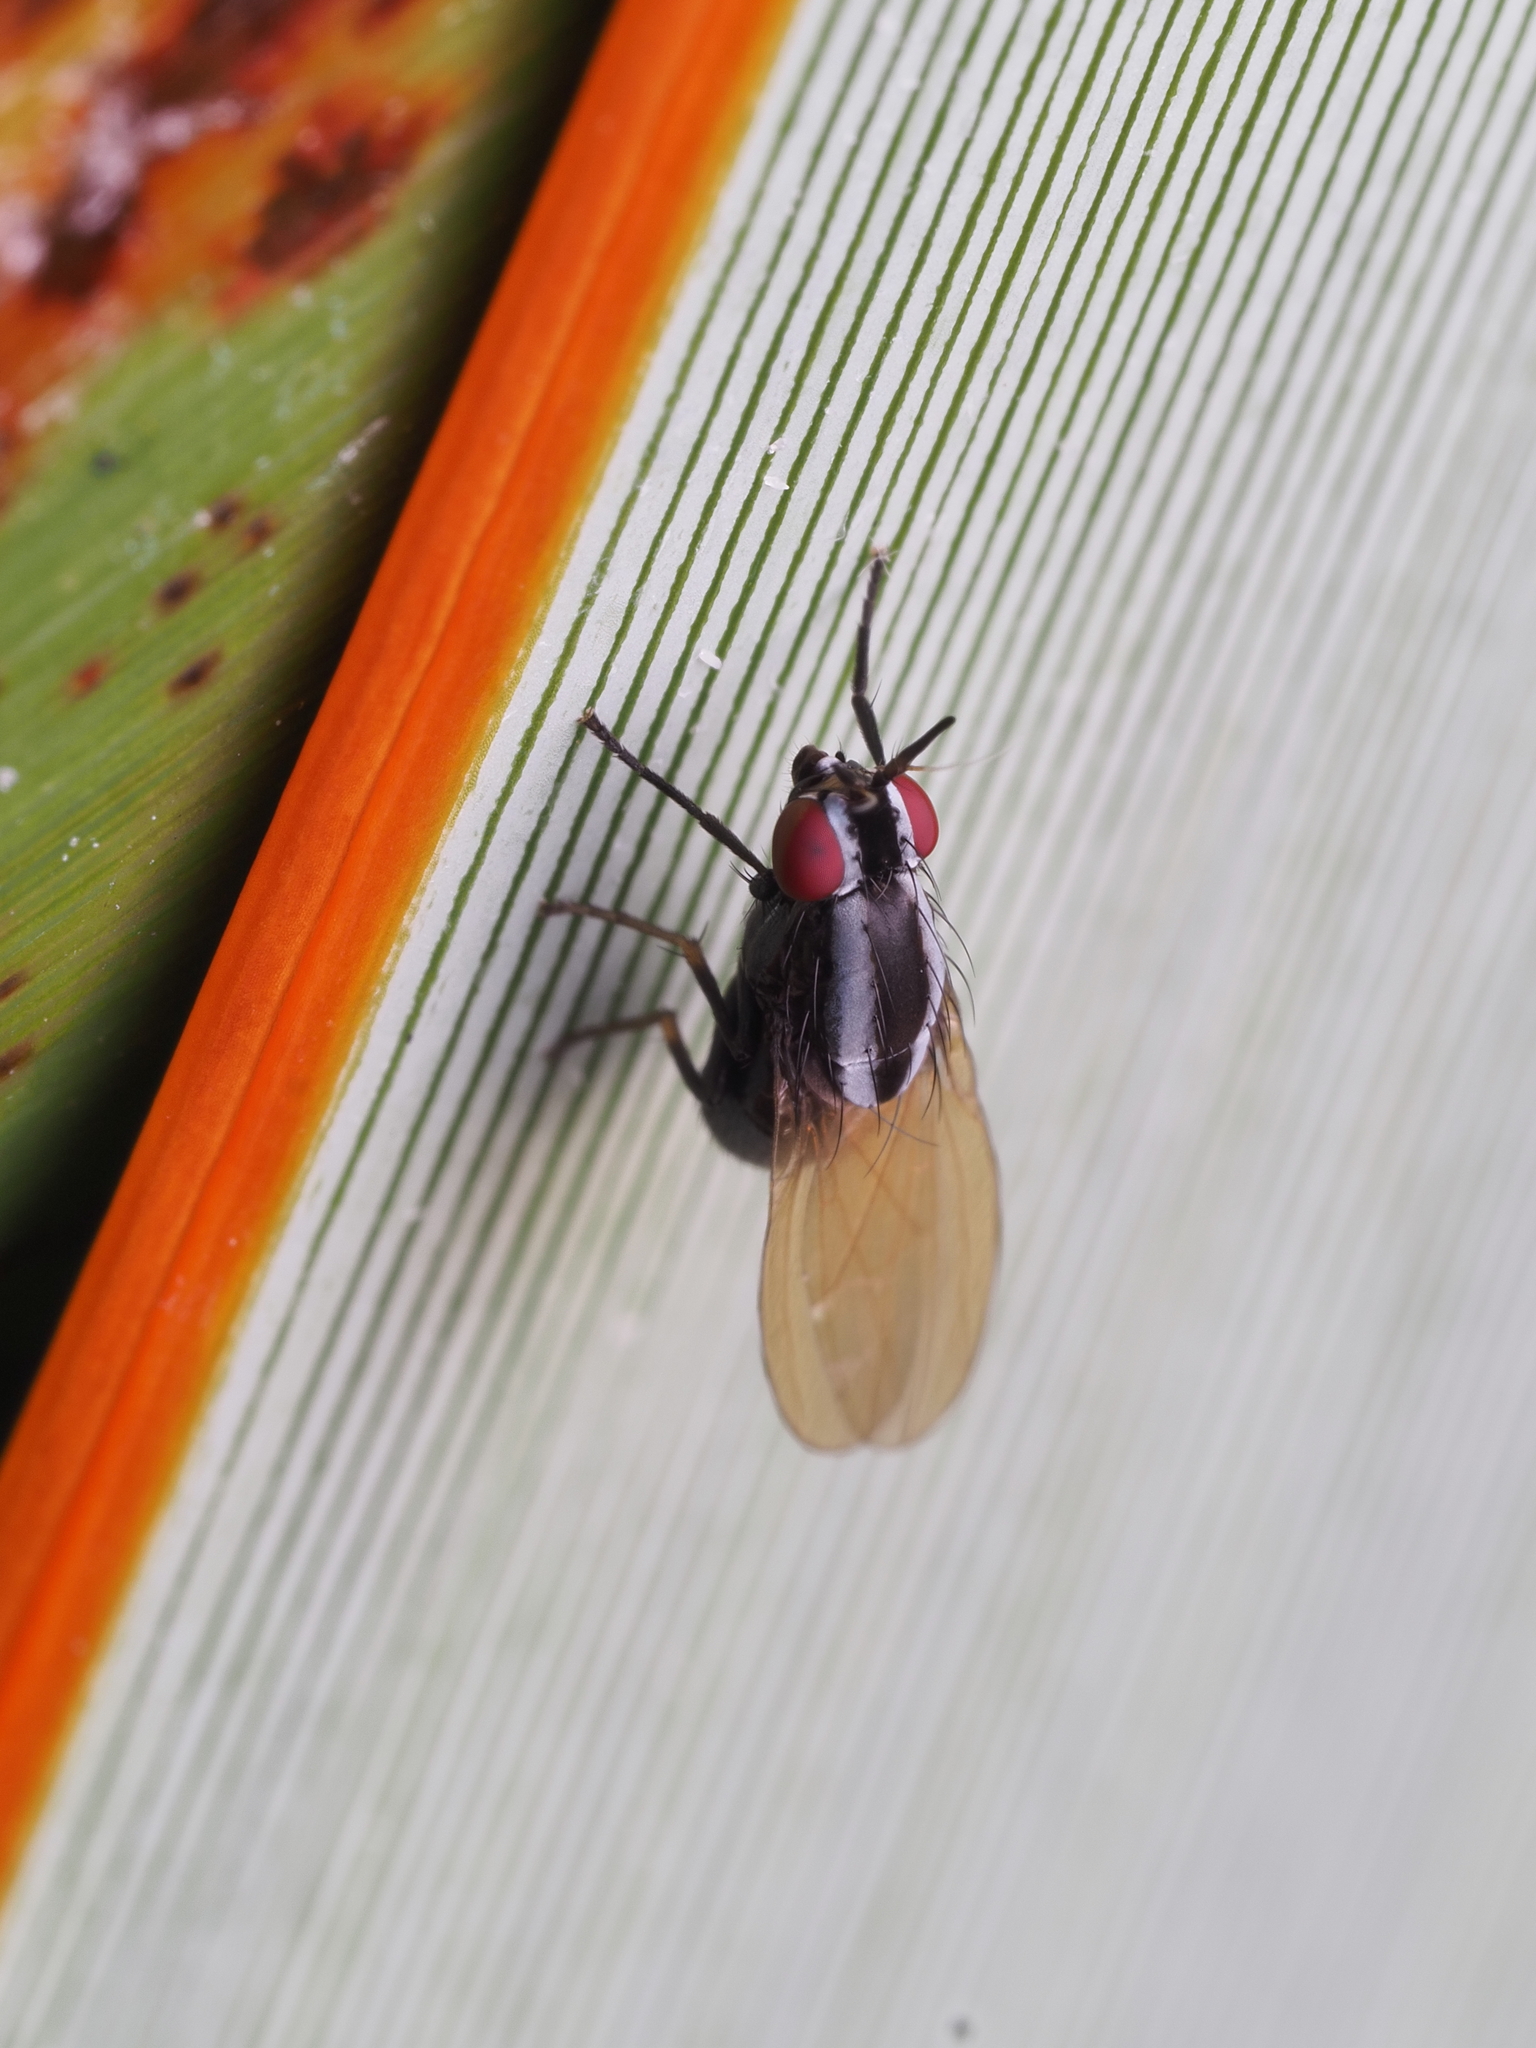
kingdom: Animalia
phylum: Arthropoda
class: Insecta
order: Diptera
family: Lauxaniidae
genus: Poecilohetaerella
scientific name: Poecilohetaerella antennata
